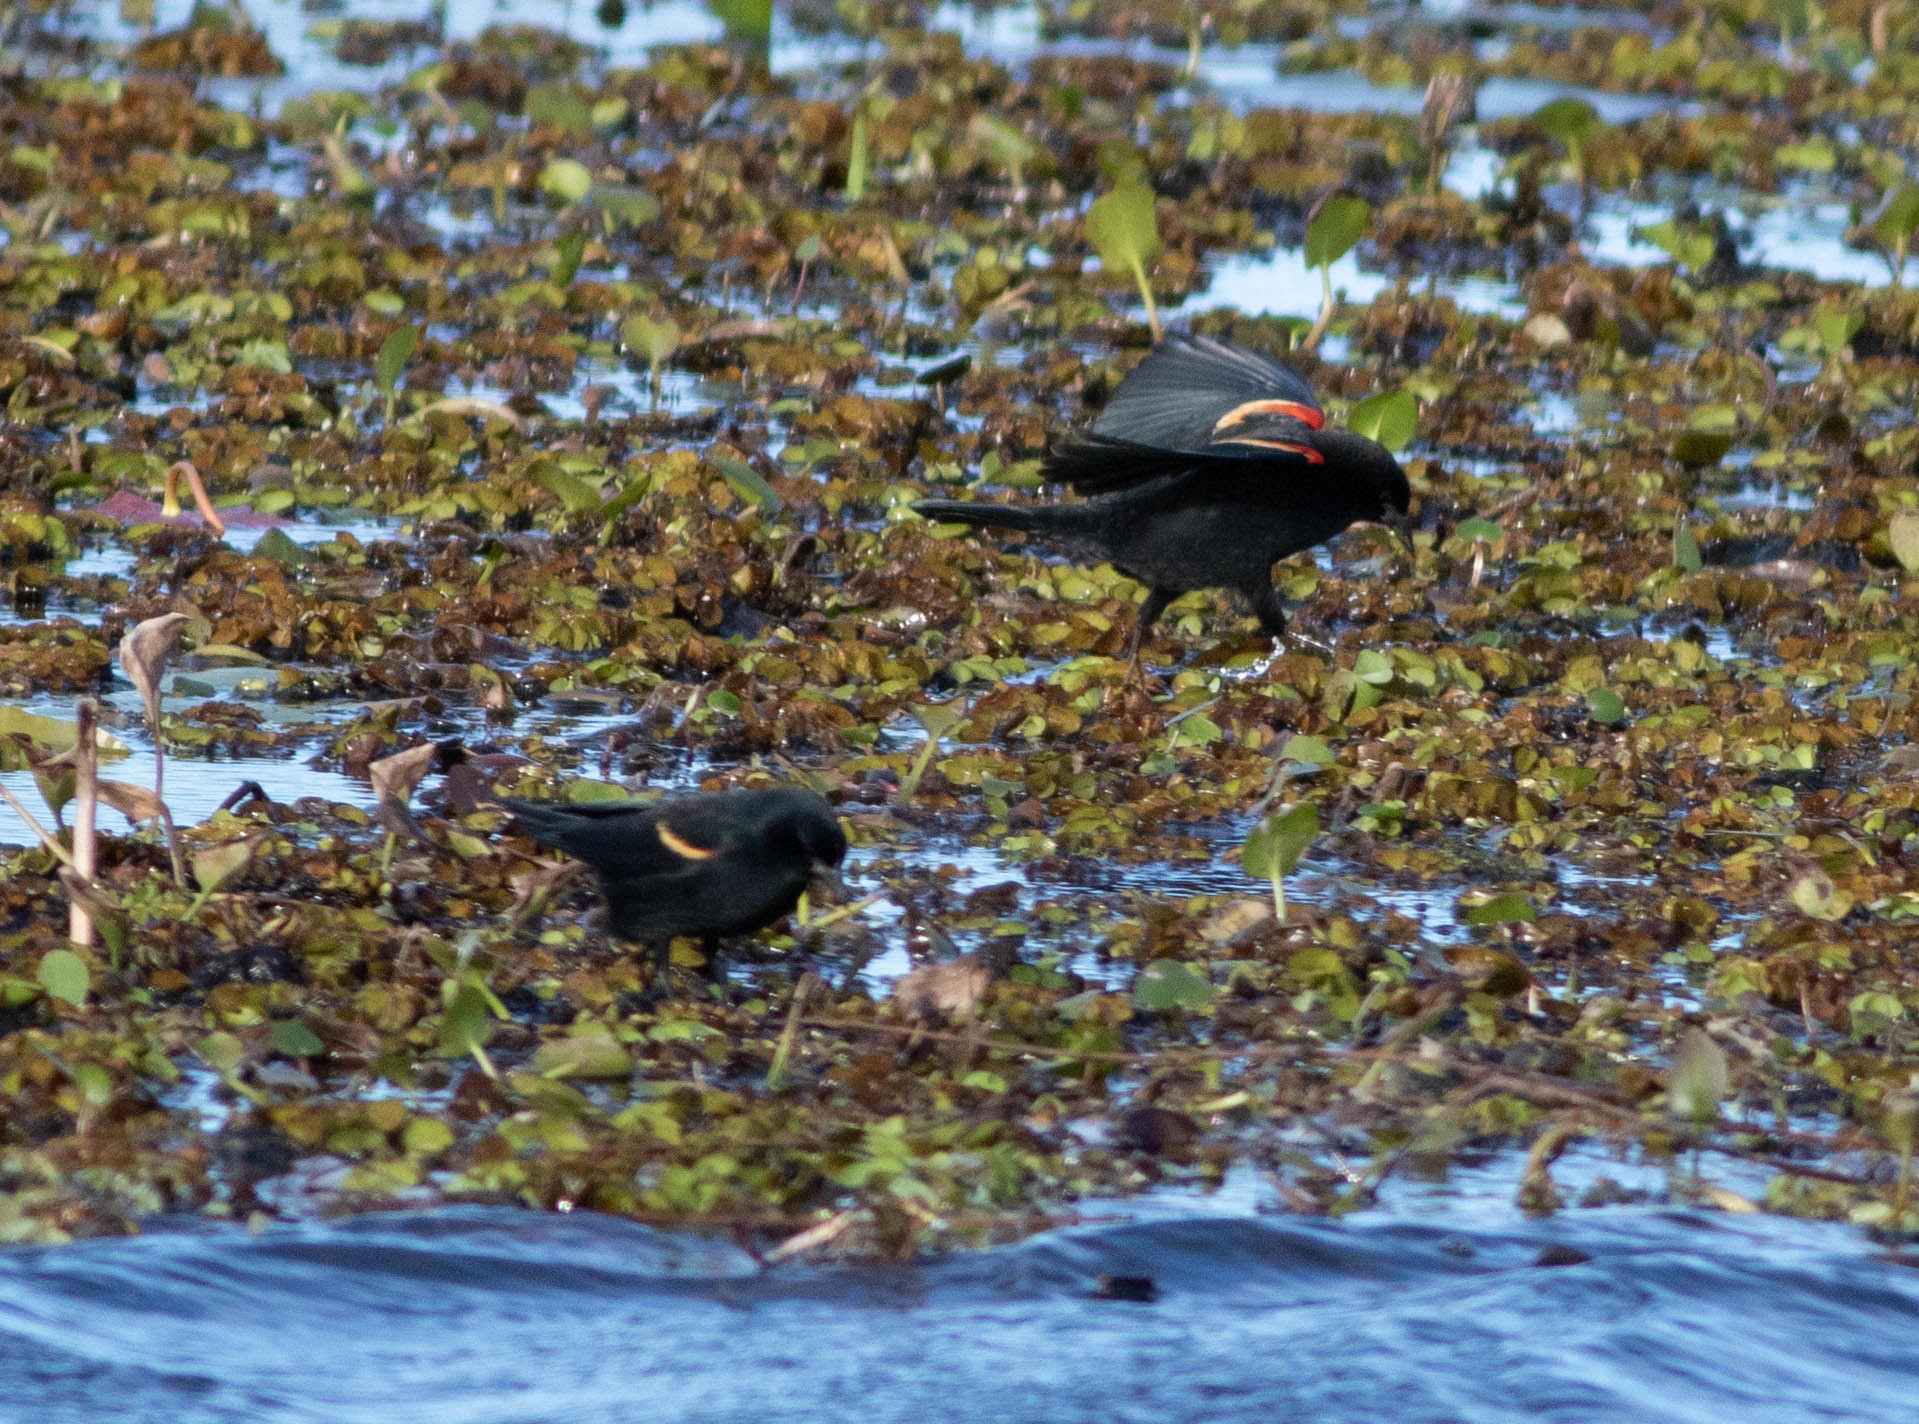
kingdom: Animalia
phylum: Chordata
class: Aves
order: Passeriformes
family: Icteridae
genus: Agelaius
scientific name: Agelaius phoeniceus
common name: Red-winged blackbird
